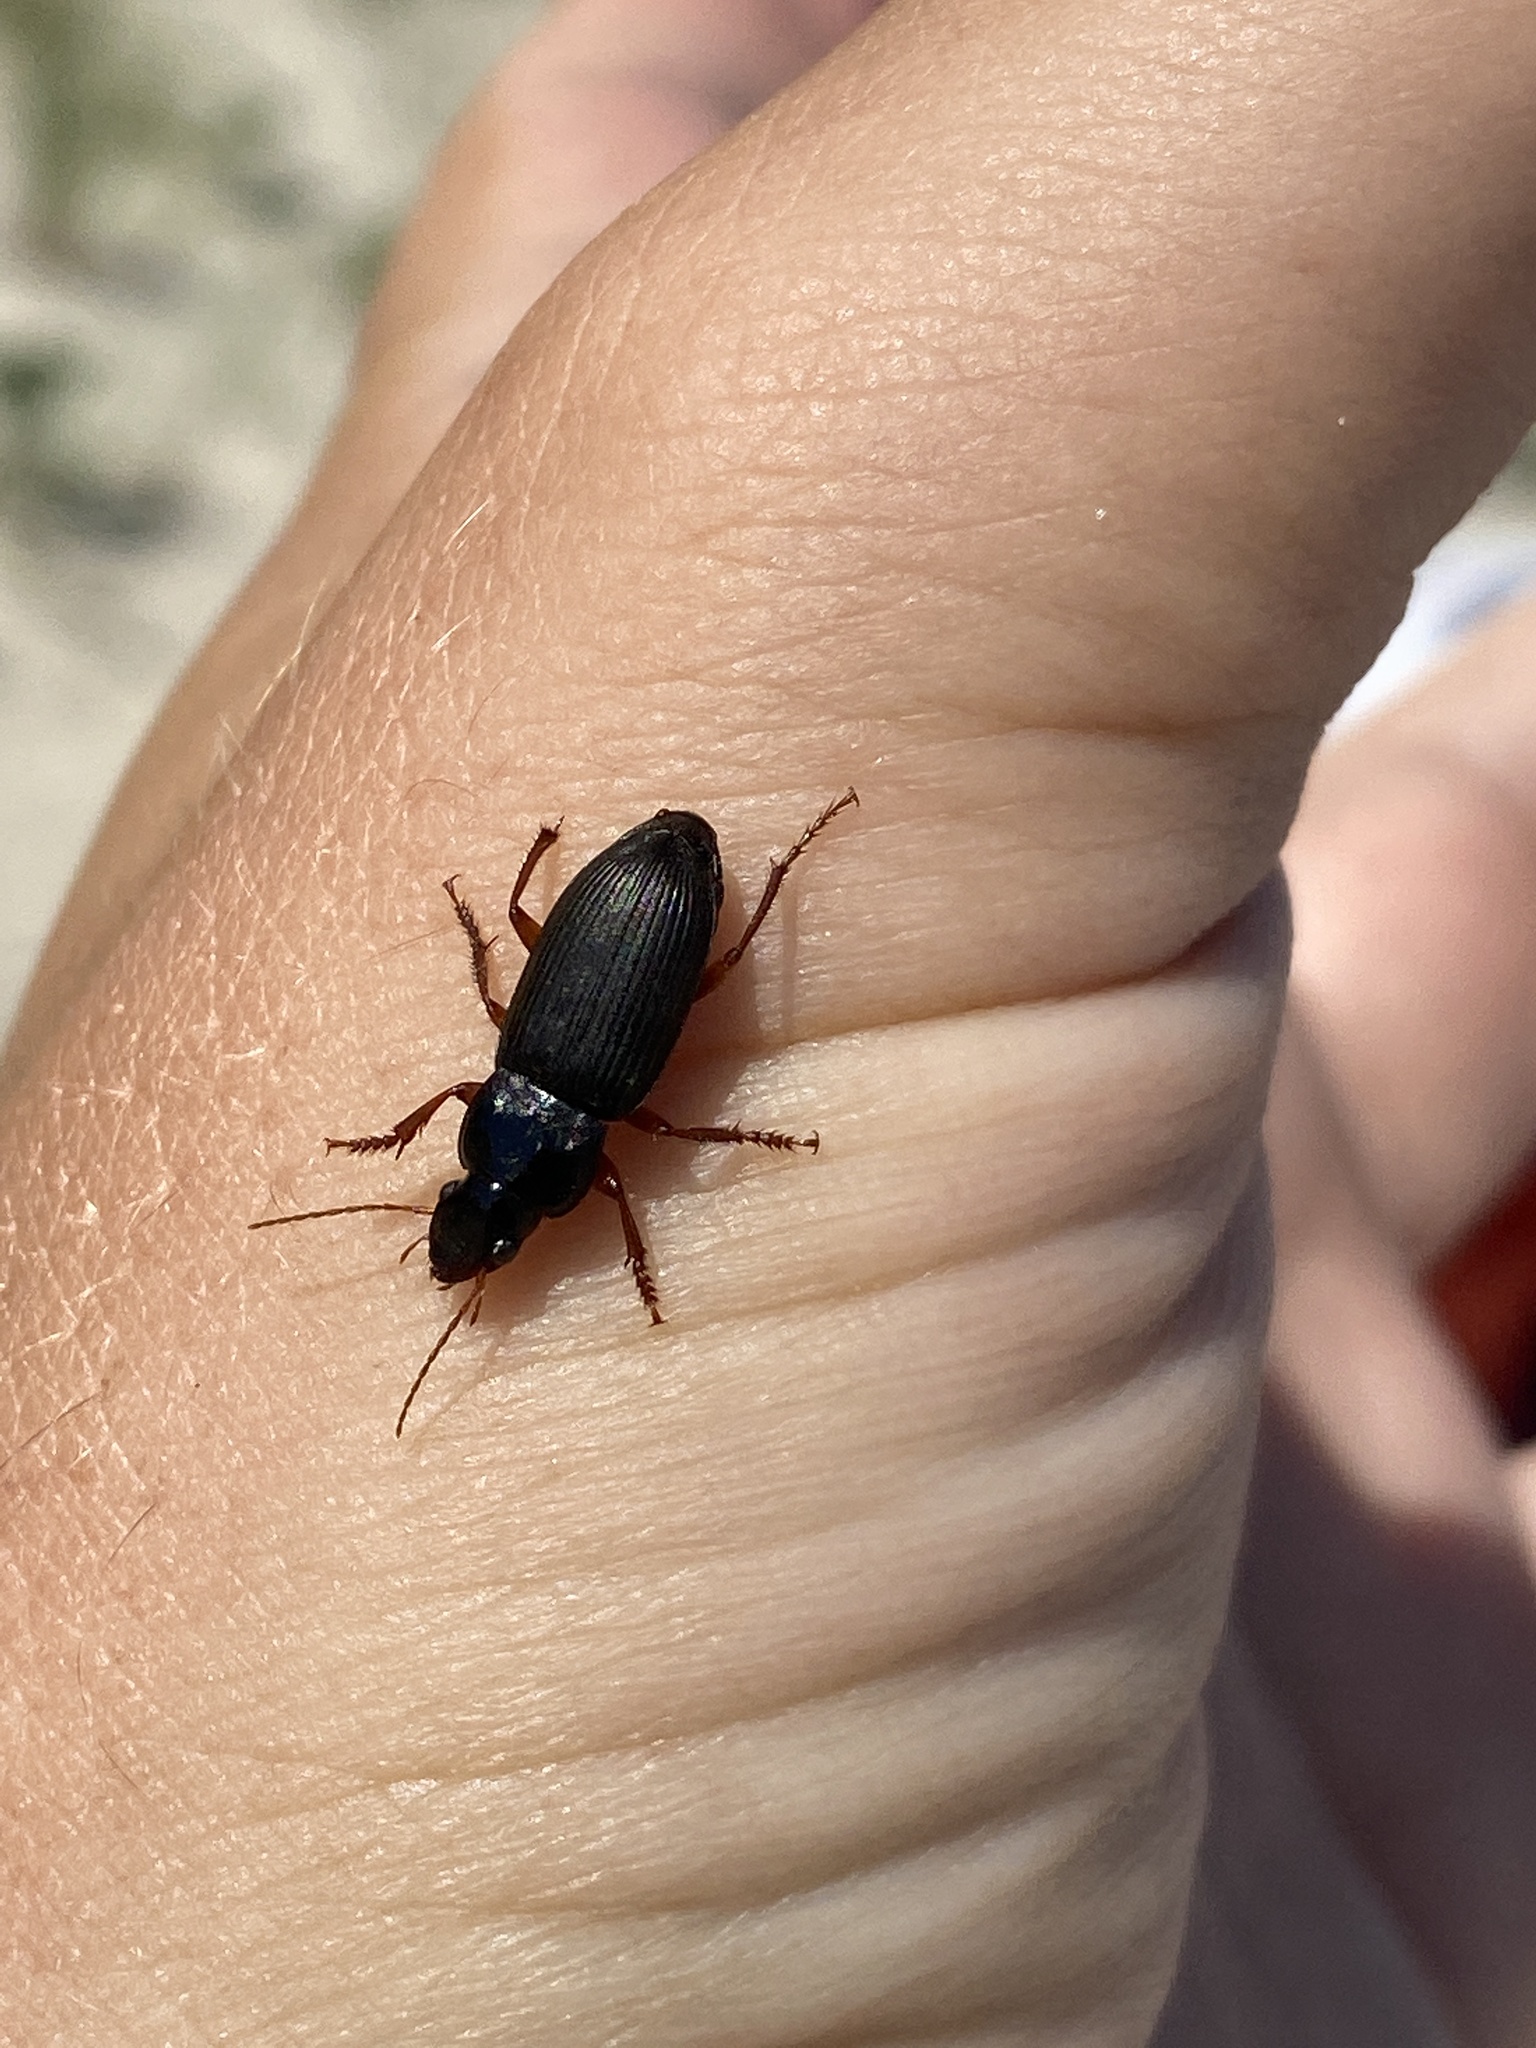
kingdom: Animalia
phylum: Arthropoda
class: Insecta
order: Coleoptera
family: Carabidae
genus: Harpalus
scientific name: Harpalus rufipes
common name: Strawberry harp ground beetle
